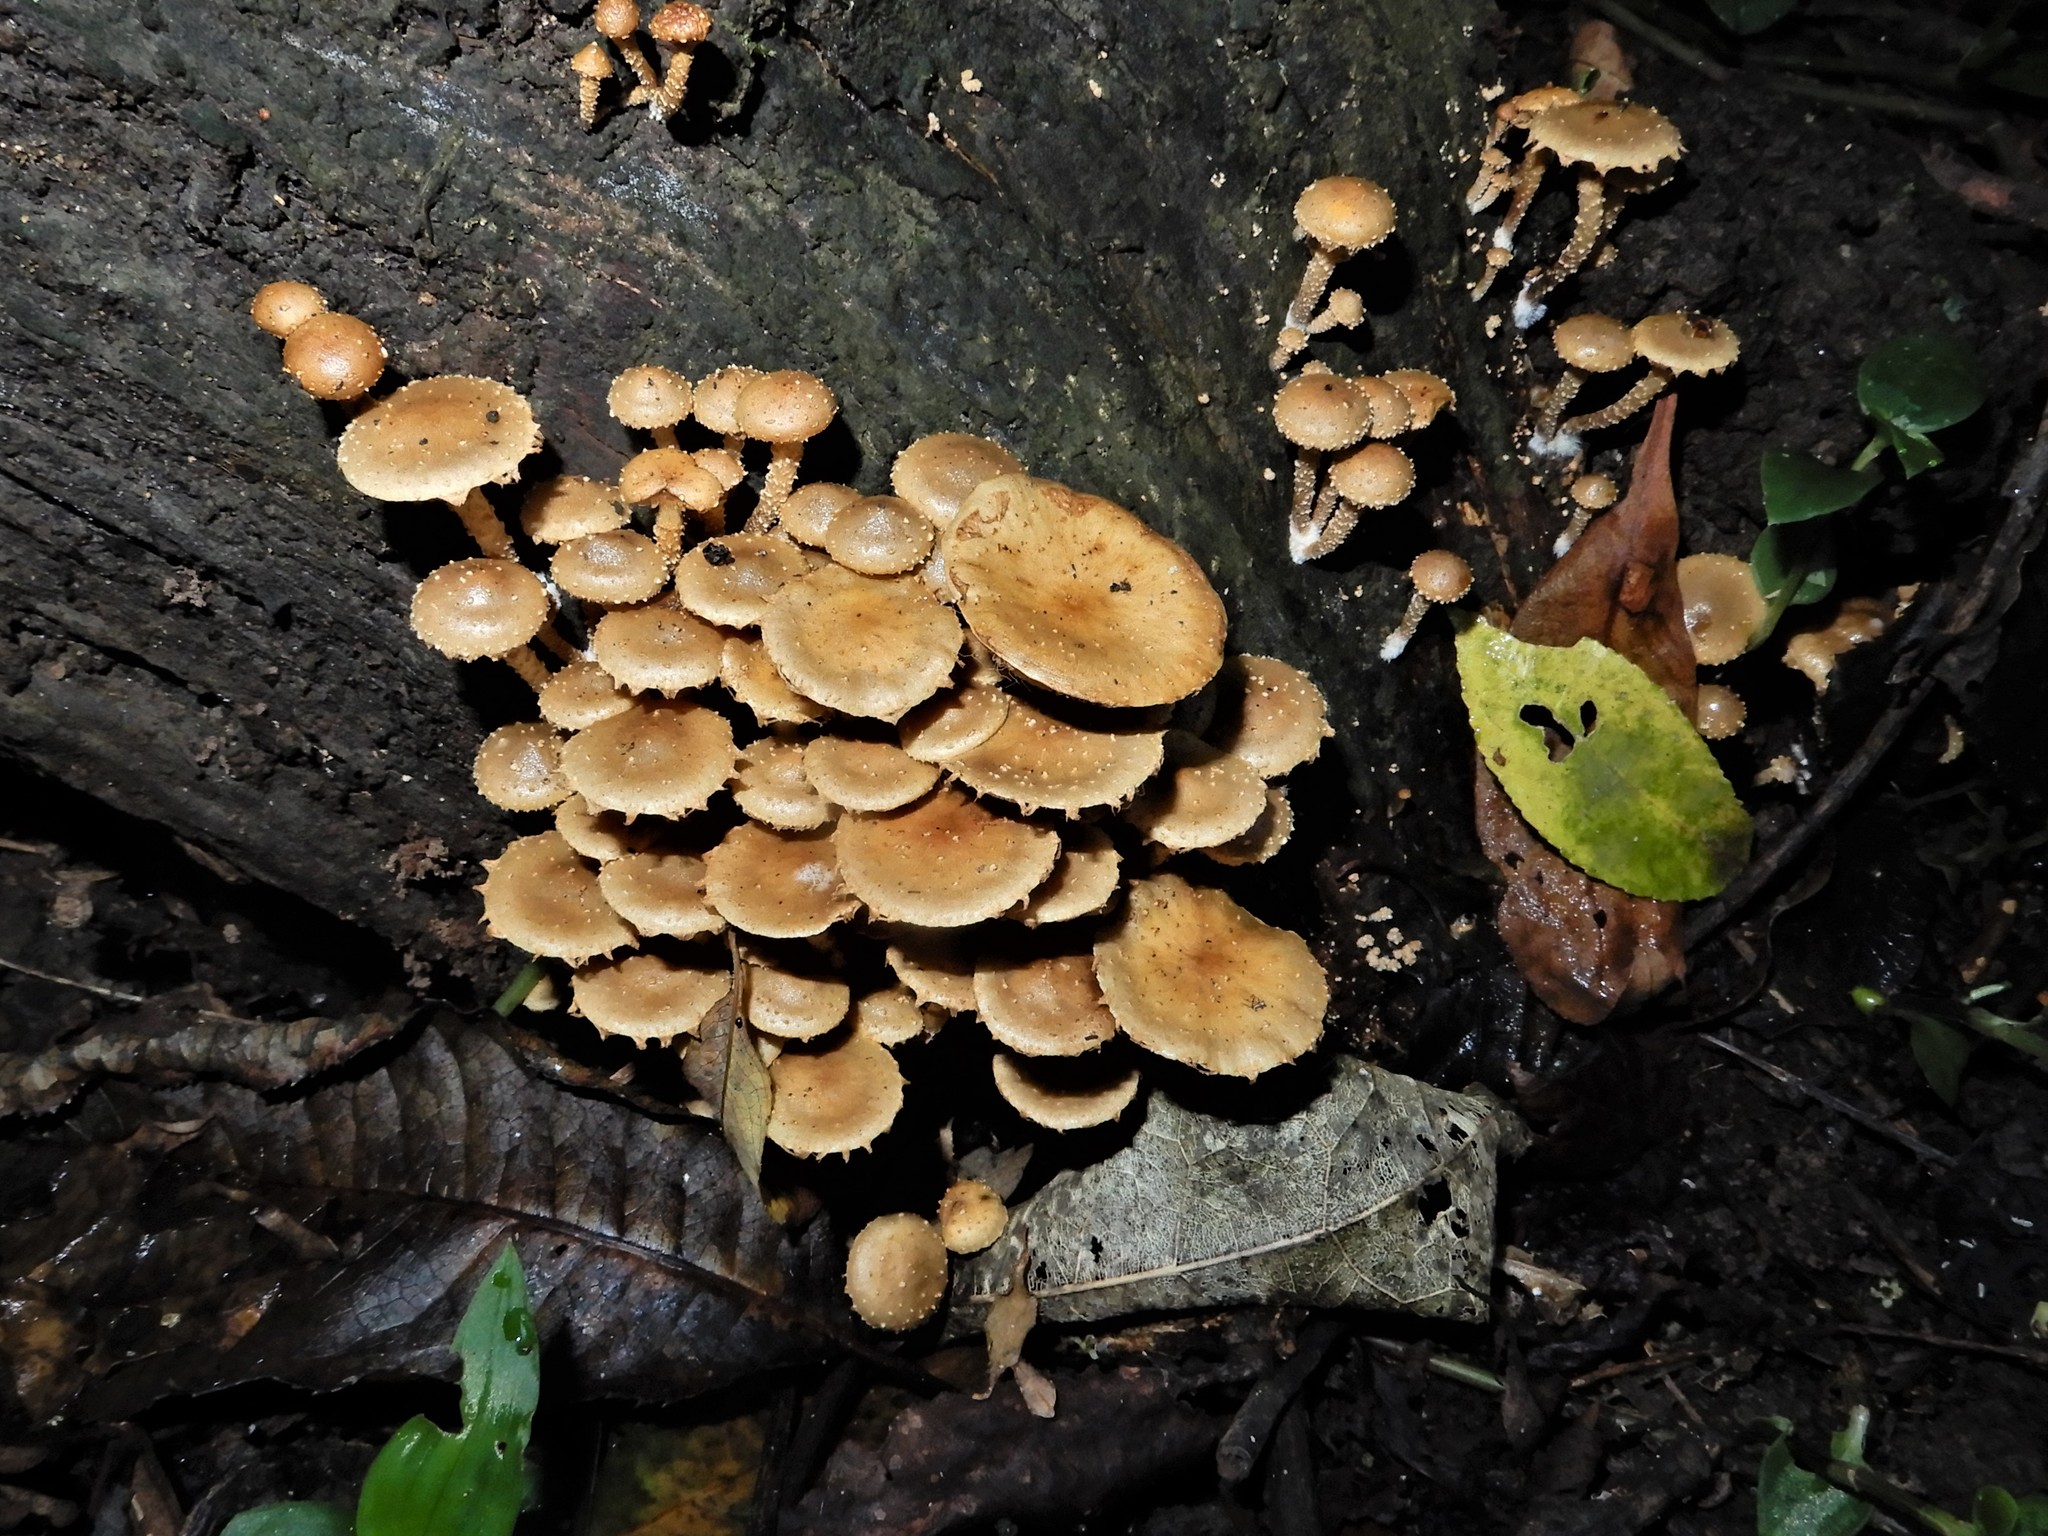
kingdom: Fungi
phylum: Basidiomycota
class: Agaricomycetes
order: Agaricales
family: Strophariaceae
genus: Pholiota
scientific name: Pholiota subflammans
